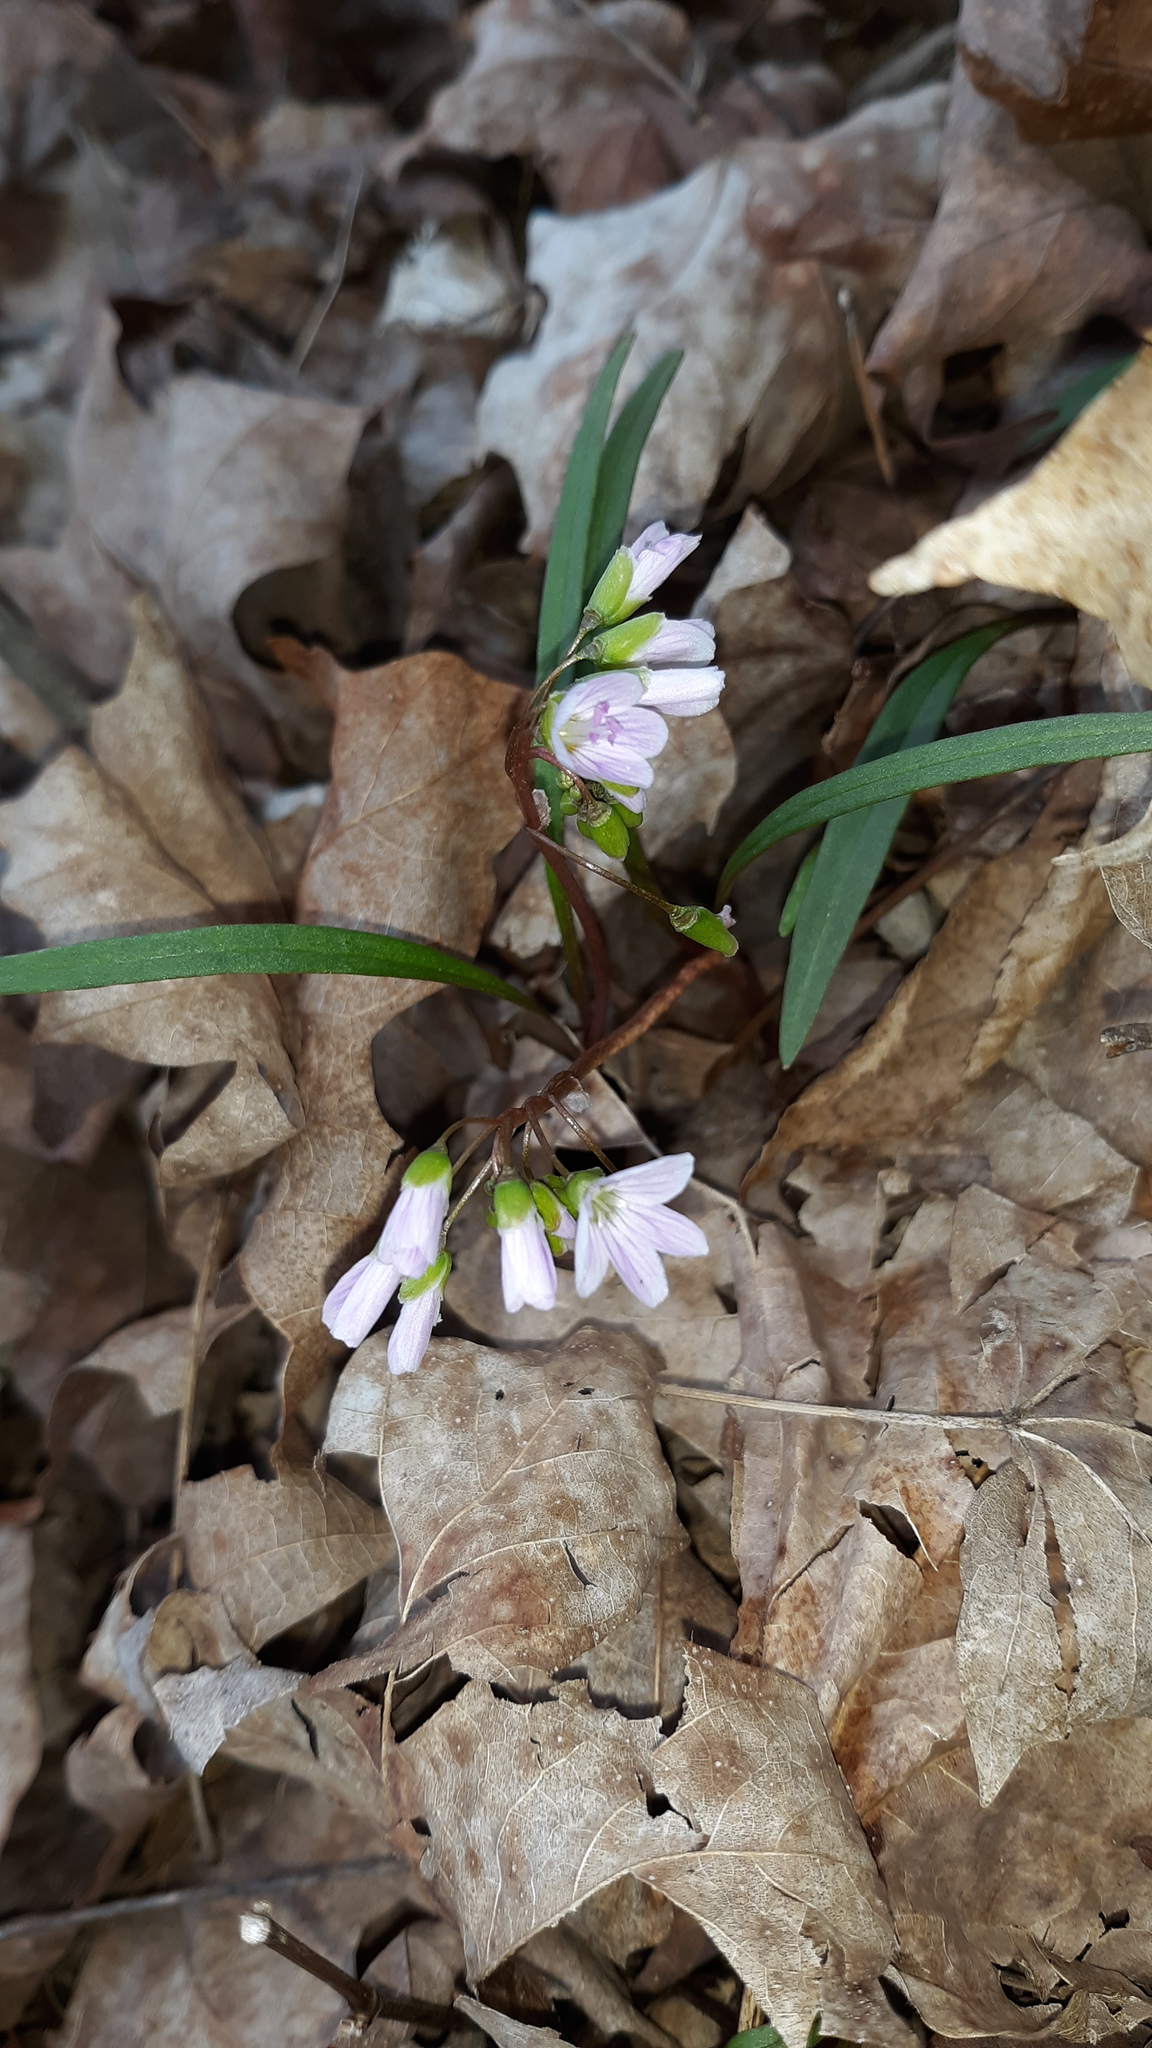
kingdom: Plantae
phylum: Tracheophyta
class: Magnoliopsida
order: Caryophyllales
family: Montiaceae
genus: Claytonia
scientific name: Claytonia virginica
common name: Virginia springbeauty
